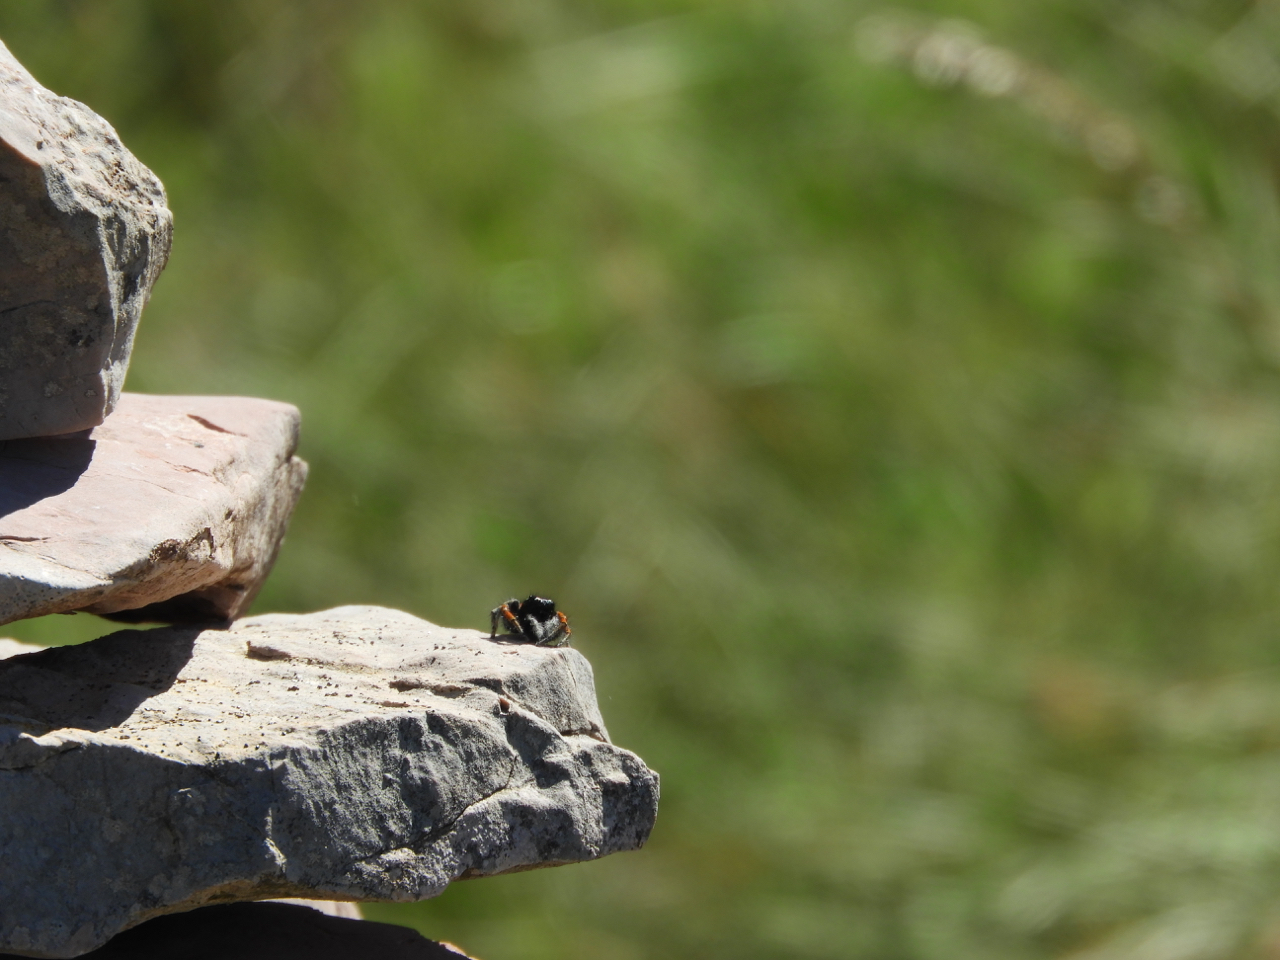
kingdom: Animalia
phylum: Arthropoda
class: Arachnida
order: Araneae
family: Salticidae
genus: Philaeus
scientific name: Philaeus chrysops
